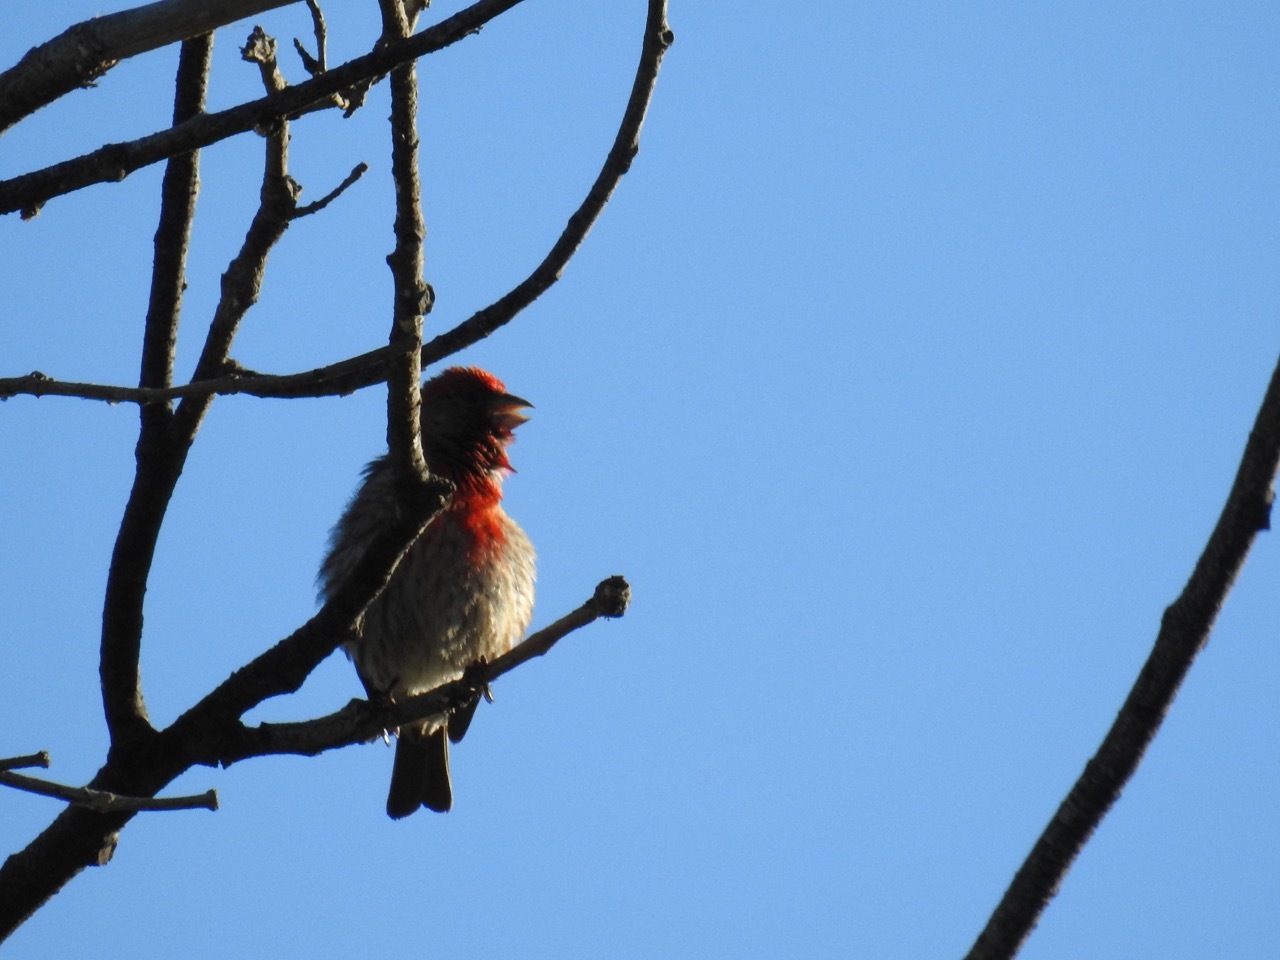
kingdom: Animalia
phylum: Chordata
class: Aves
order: Passeriformes
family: Fringillidae
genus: Haemorhous
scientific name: Haemorhous mexicanus
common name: House finch
